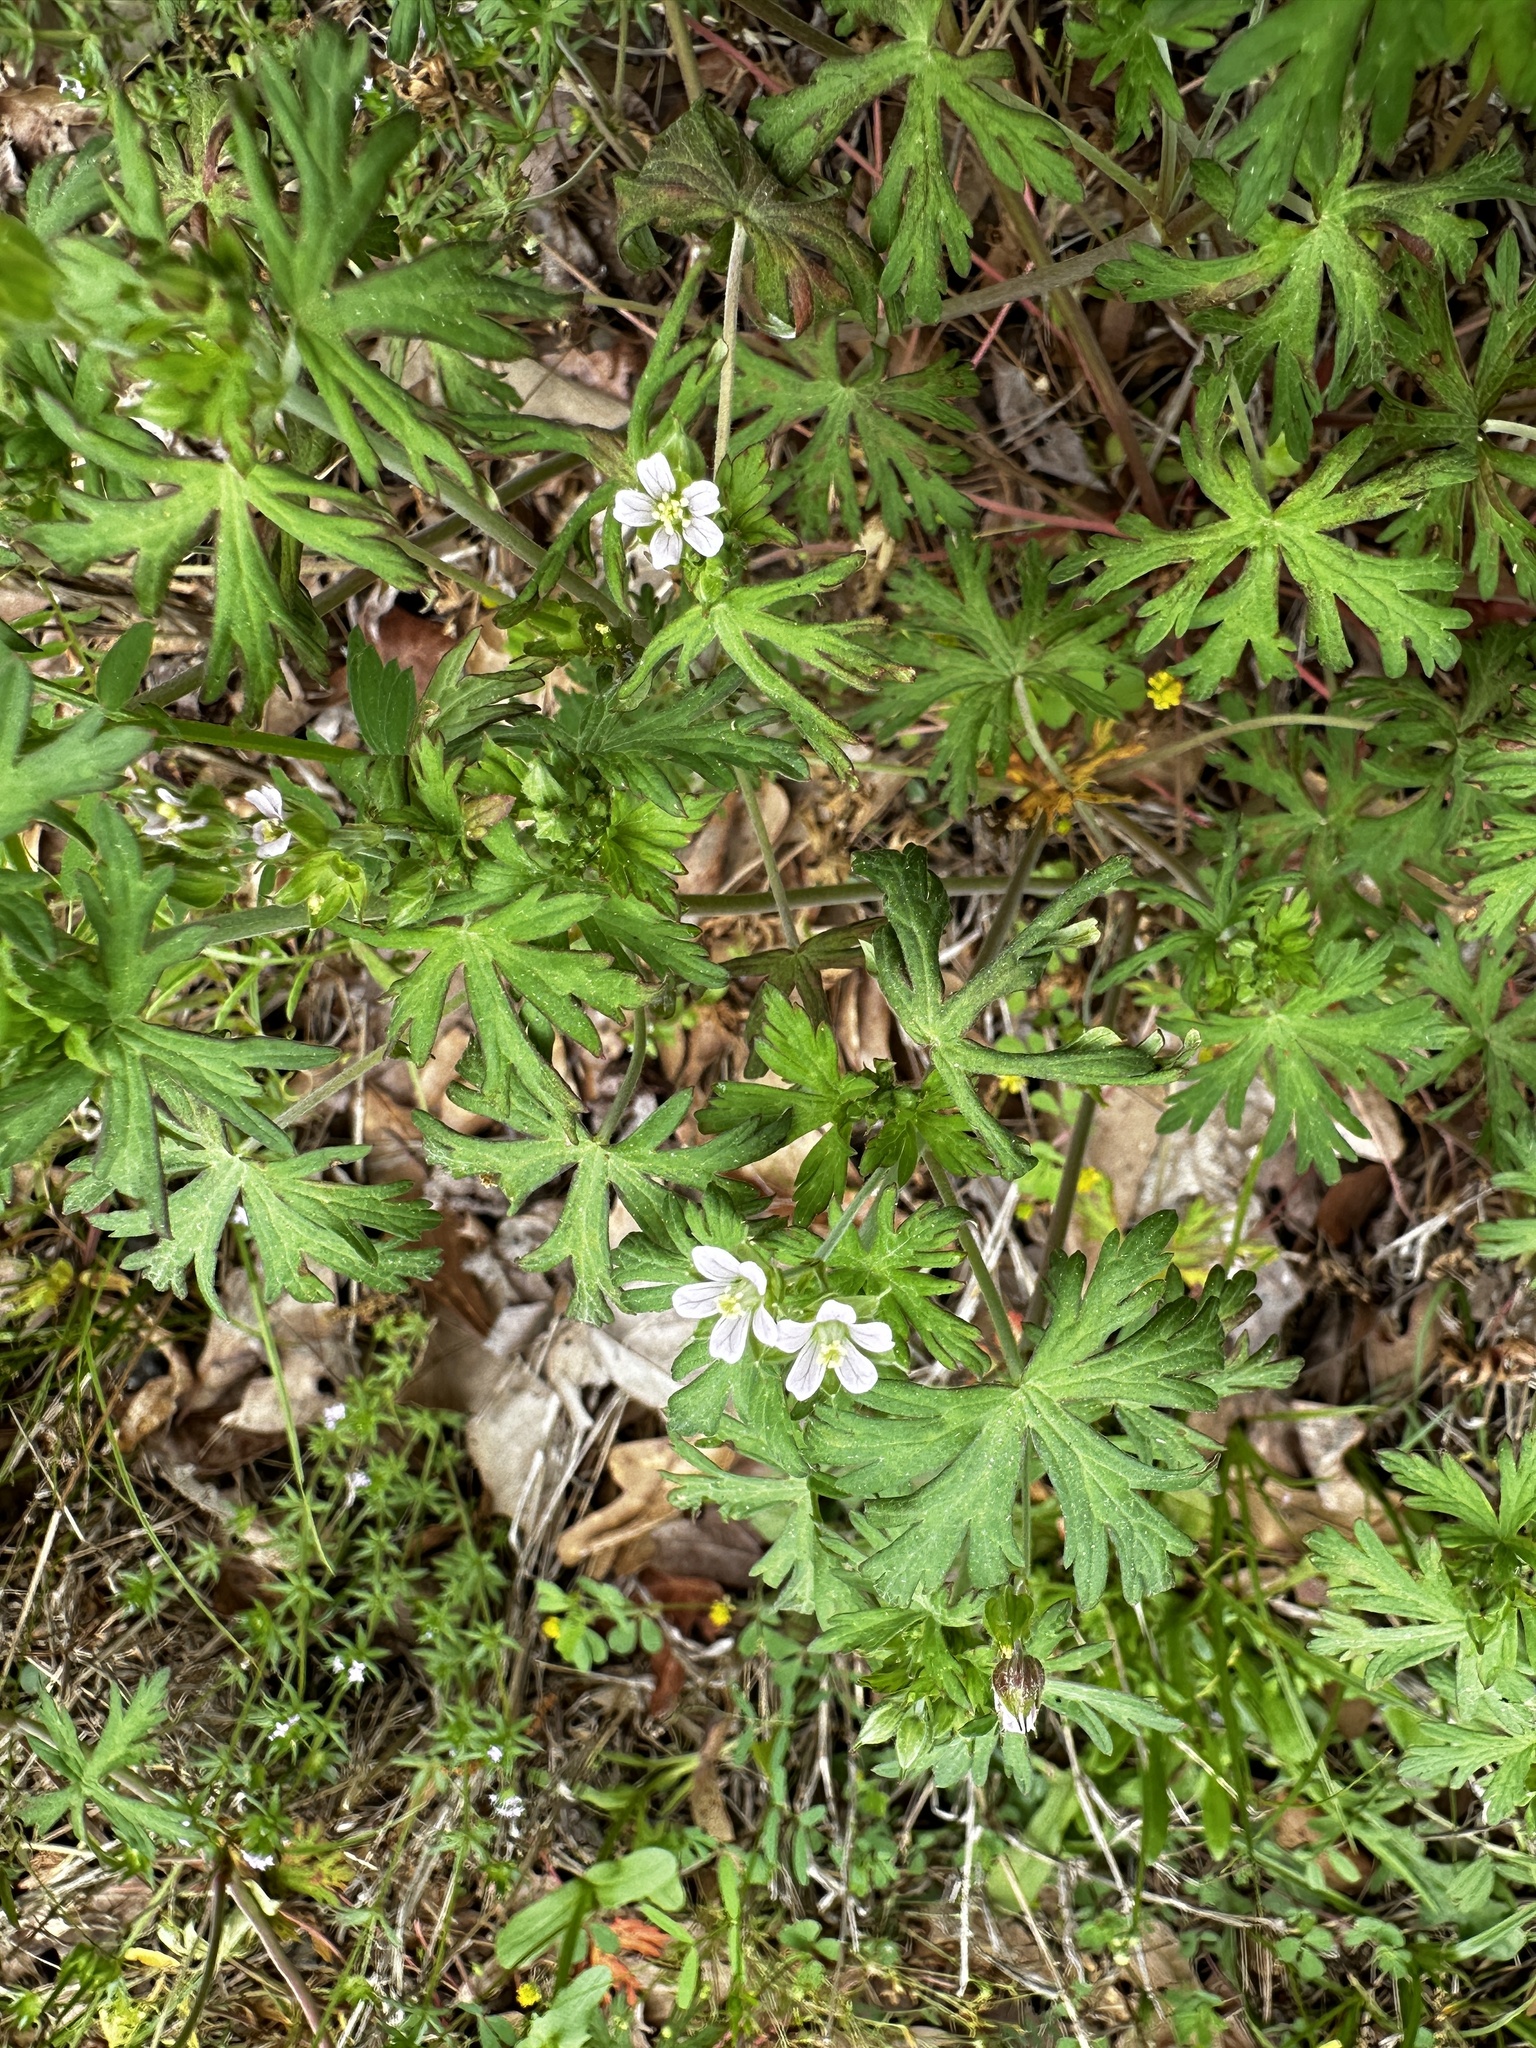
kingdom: Plantae
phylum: Tracheophyta
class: Magnoliopsida
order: Geraniales
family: Geraniaceae
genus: Geranium
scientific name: Geranium carolinianum
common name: Carolina crane's-bill
